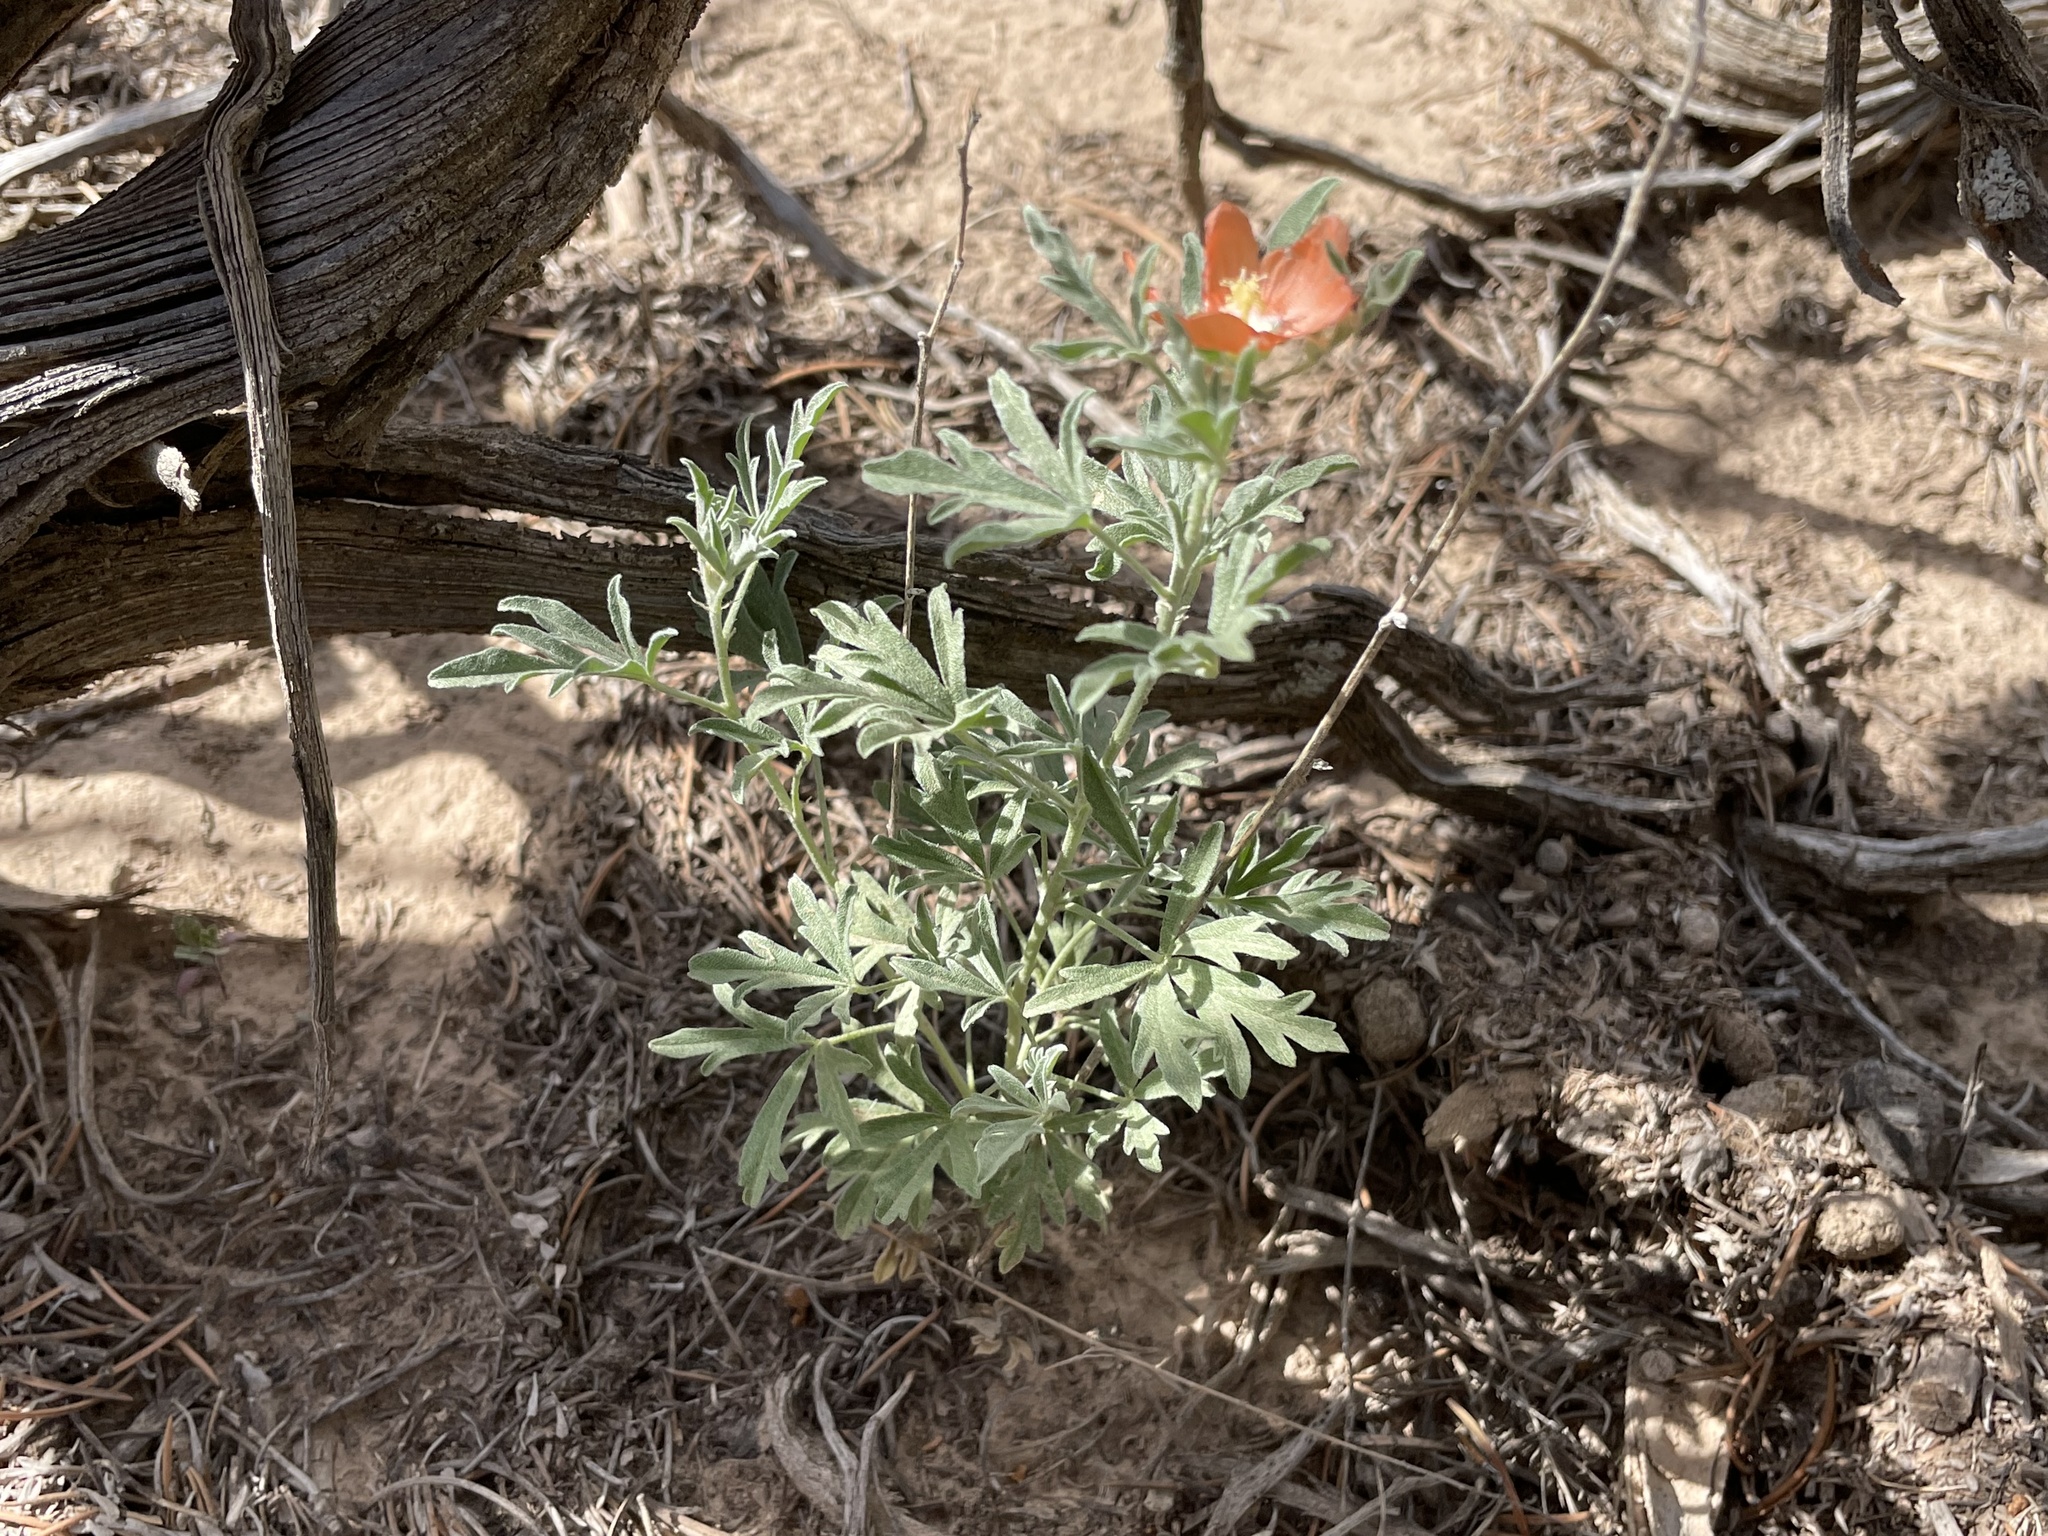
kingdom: Plantae
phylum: Tracheophyta
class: Magnoliopsida
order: Malvales
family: Malvaceae
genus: Sphaeralcea
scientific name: Sphaeralcea coccinea
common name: Moss-rose
